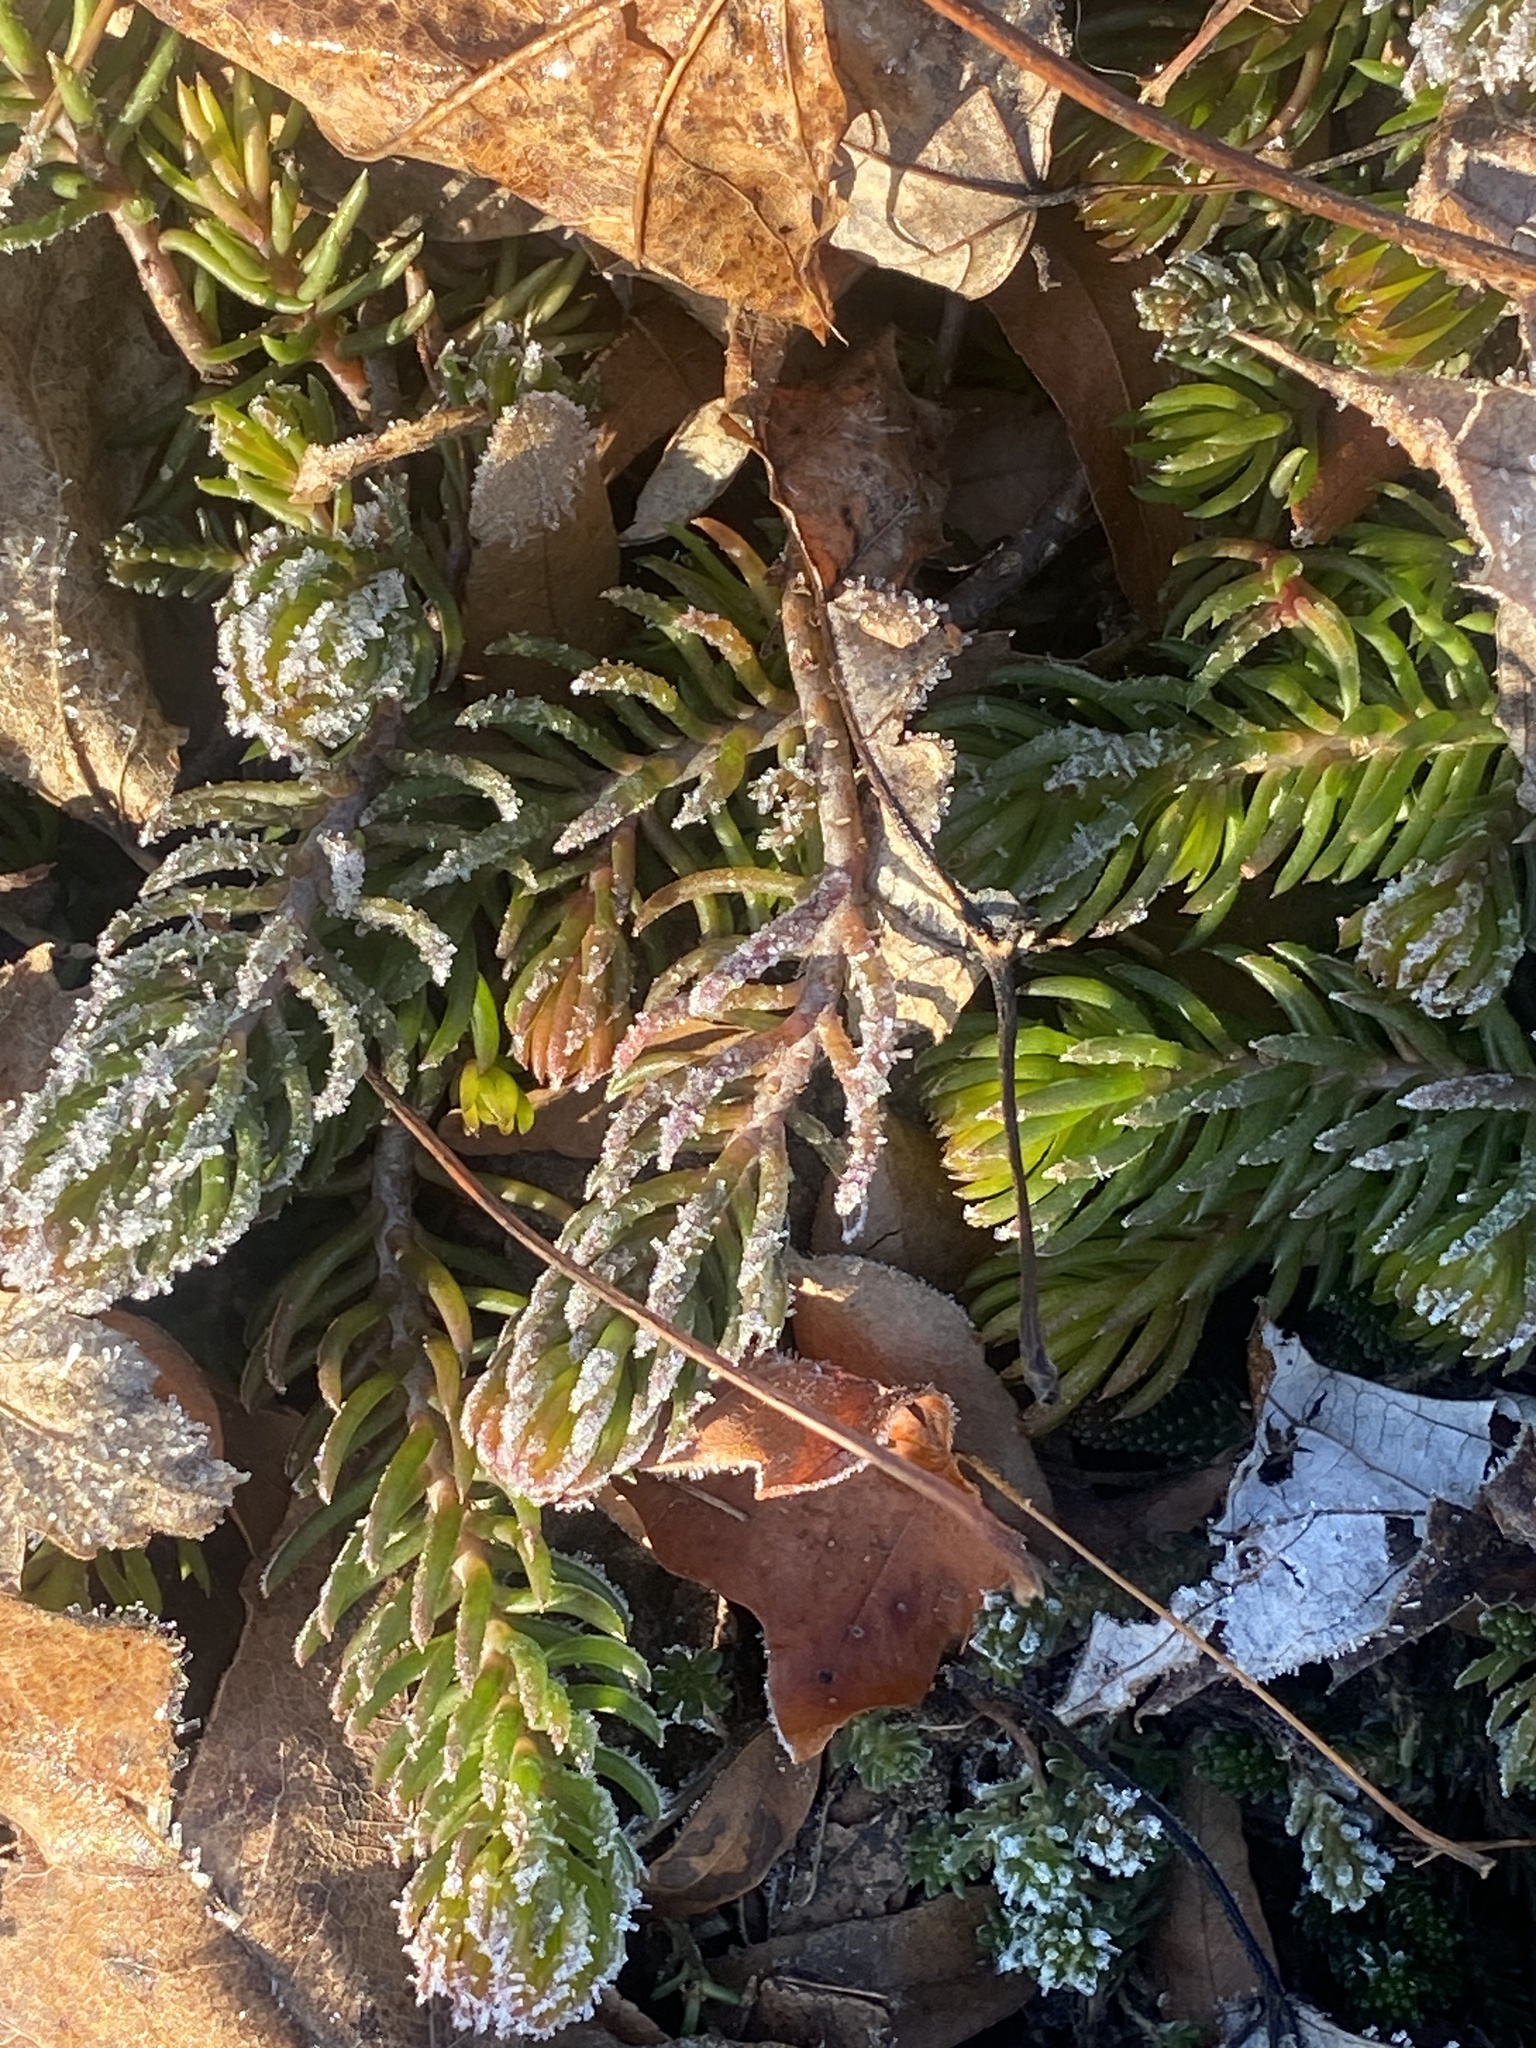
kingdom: Plantae
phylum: Tracheophyta
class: Magnoliopsida
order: Saxifragales
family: Crassulaceae
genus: Petrosedum
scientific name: Petrosedum rupestre
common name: Jenny's stonecrop
